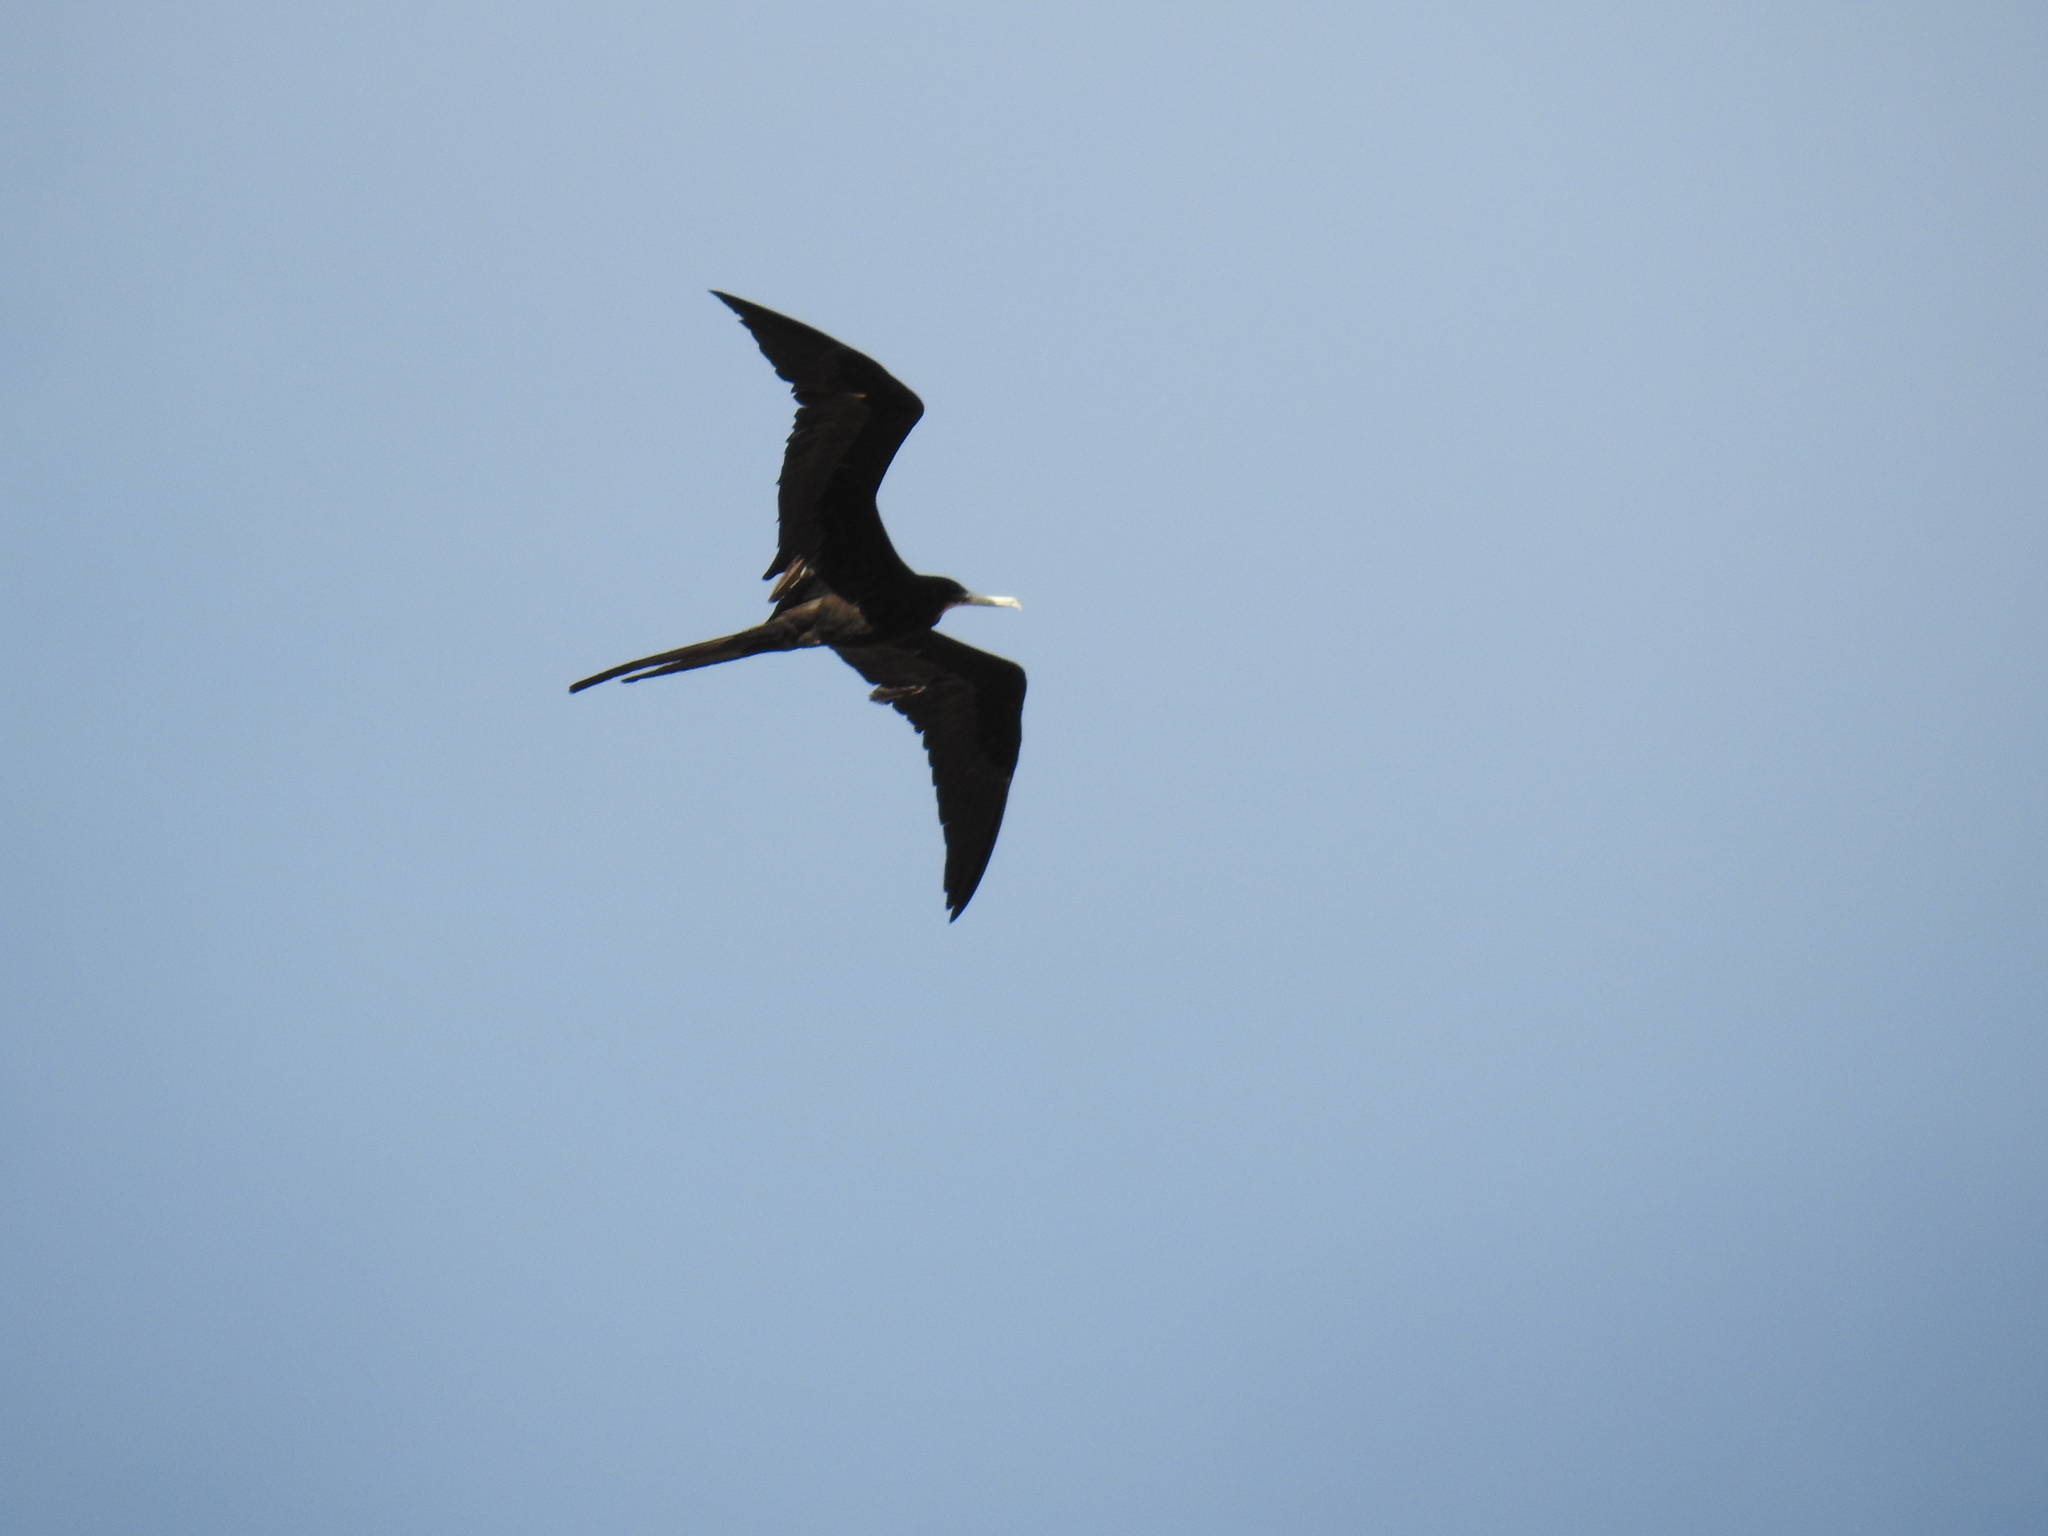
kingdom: Animalia
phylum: Chordata
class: Aves
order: Suliformes
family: Fregatidae
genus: Fregata
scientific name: Fregata magnificens
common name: Magnificent frigatebird
